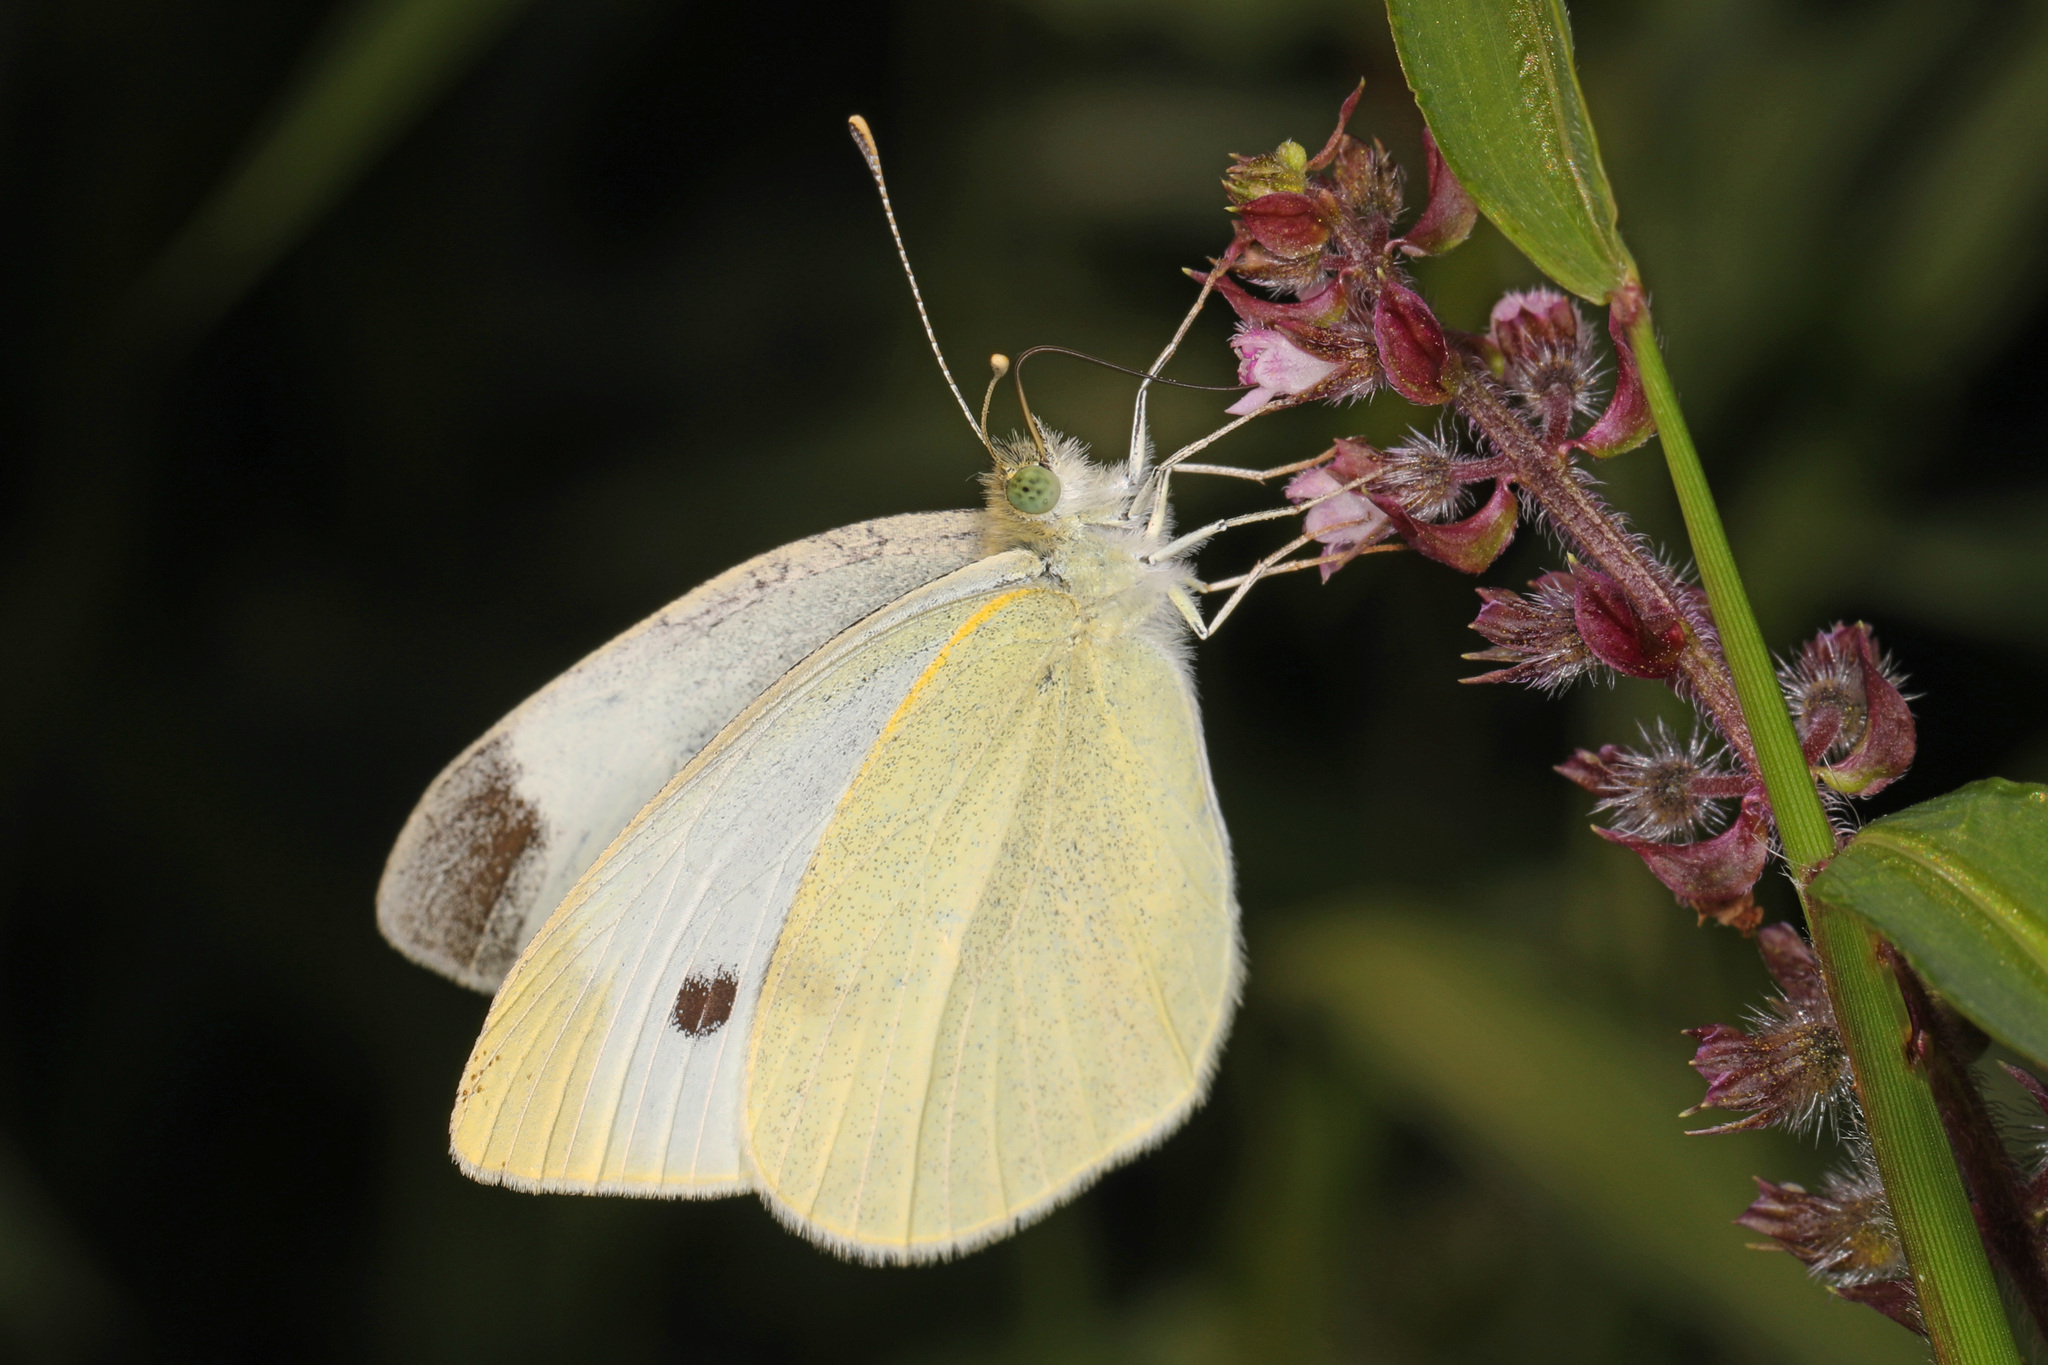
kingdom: Animalia
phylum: Arthropoda
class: Insecta
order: Lepidoptera
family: Pieridae
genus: Pieris
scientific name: Pieris rapae
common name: Small white
